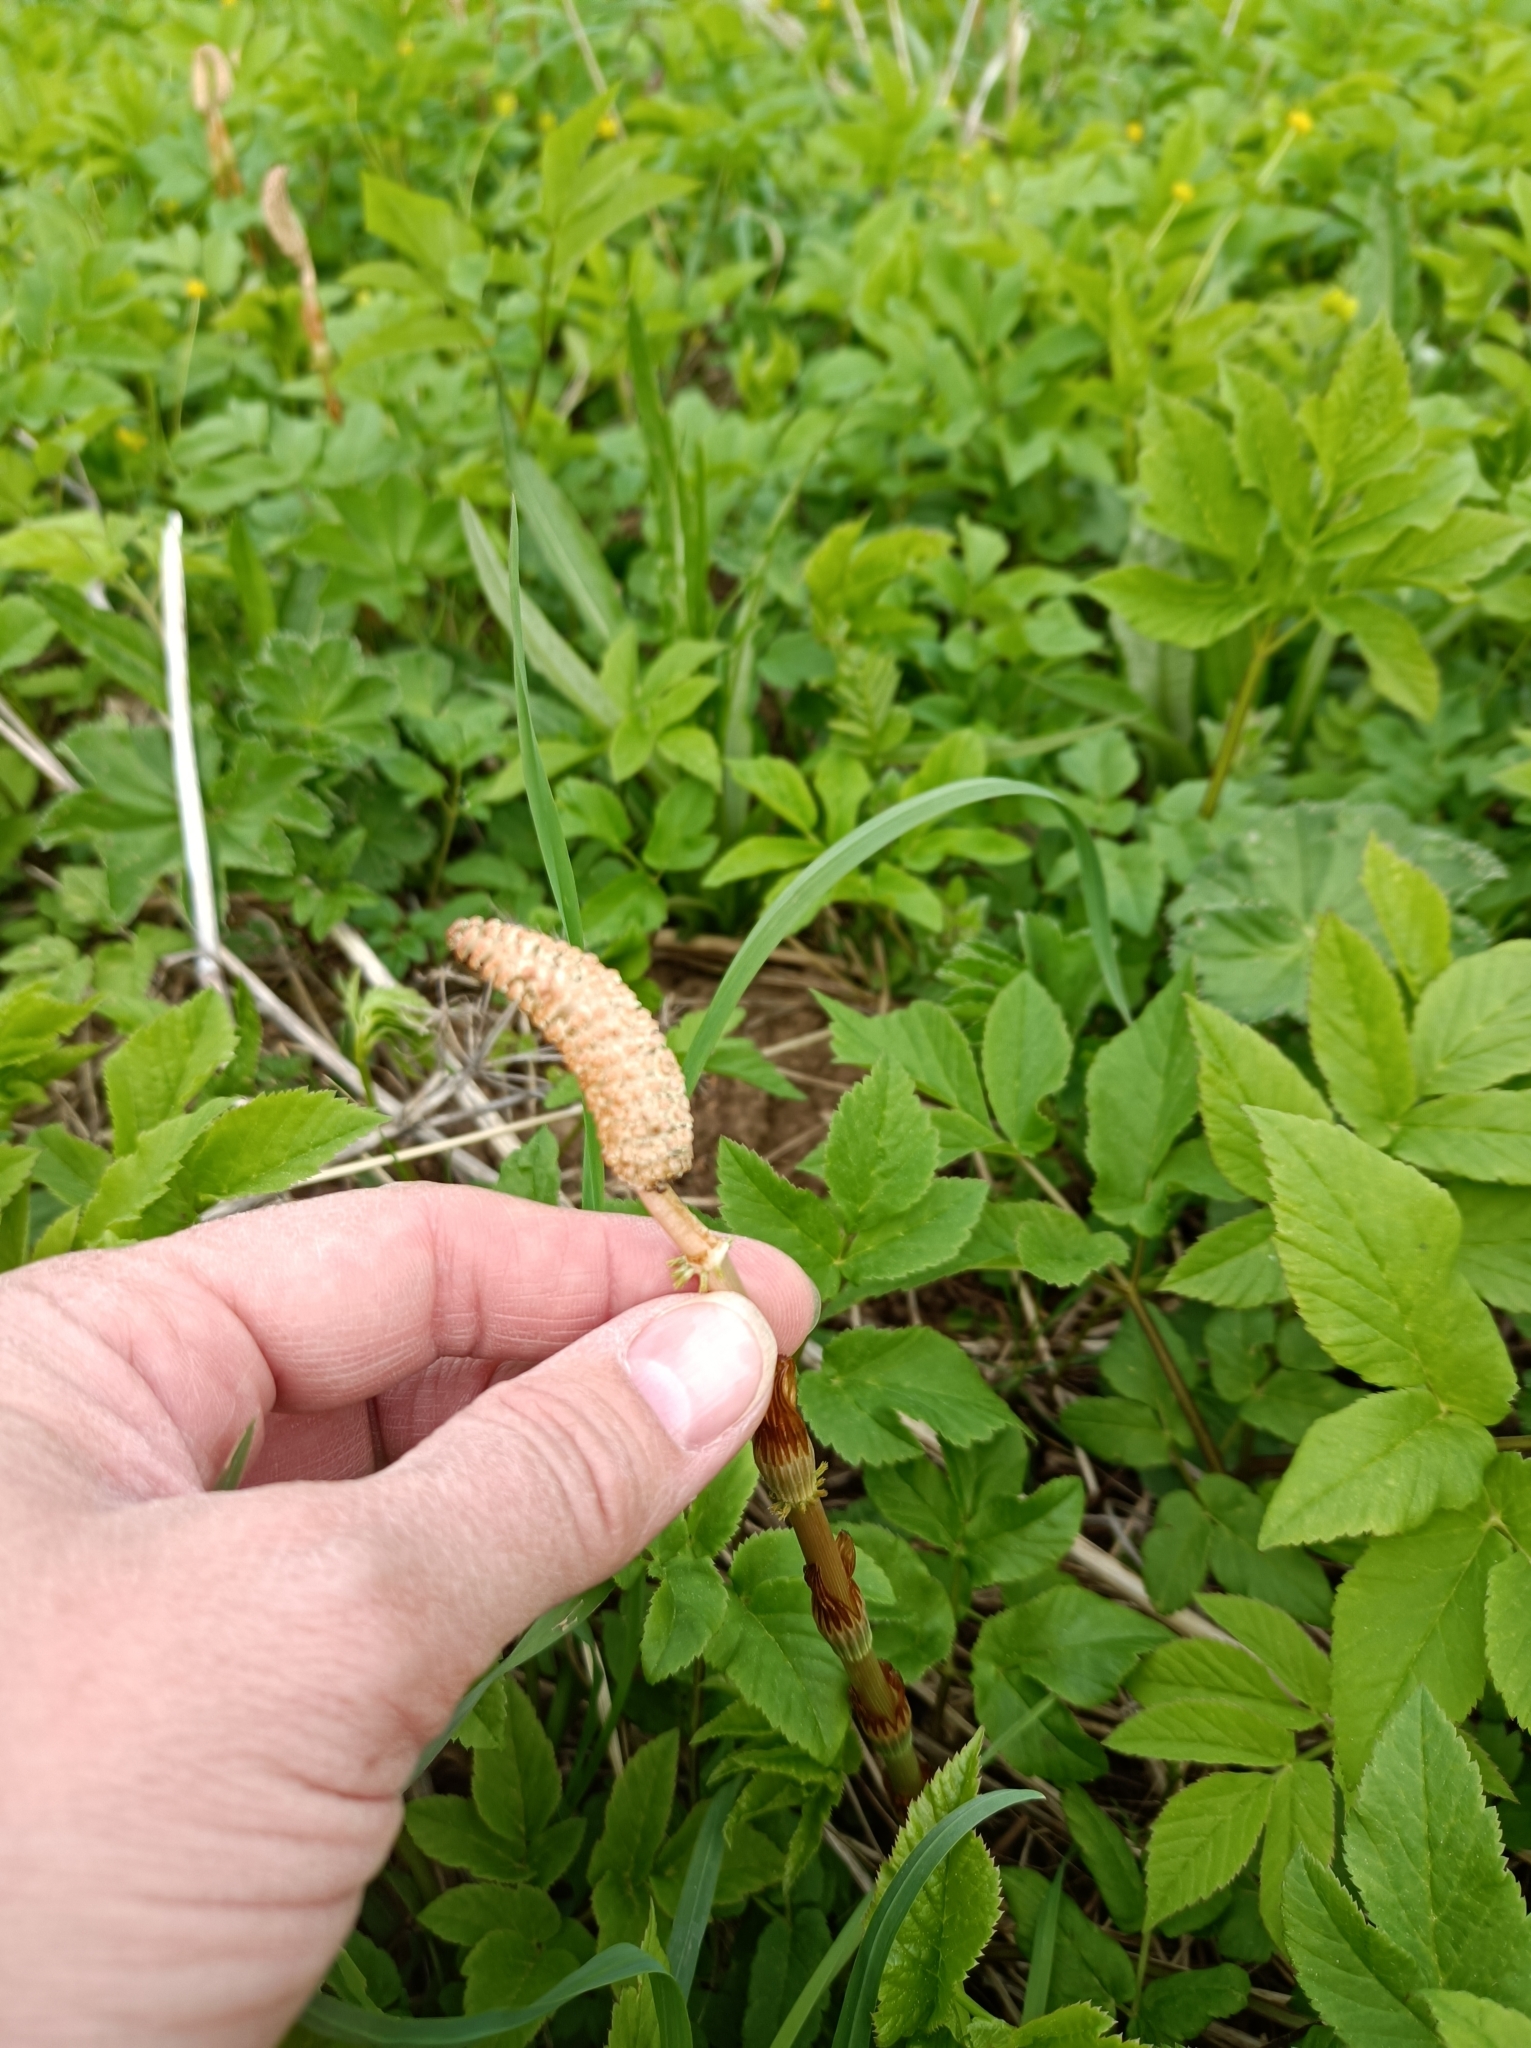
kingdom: Plantae
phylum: Tracheophyta
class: Polypodiopsida
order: Equisetales
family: Equisetaceae
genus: Equisetum
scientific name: Equisetum sylvaticum
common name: Wood horsetail
